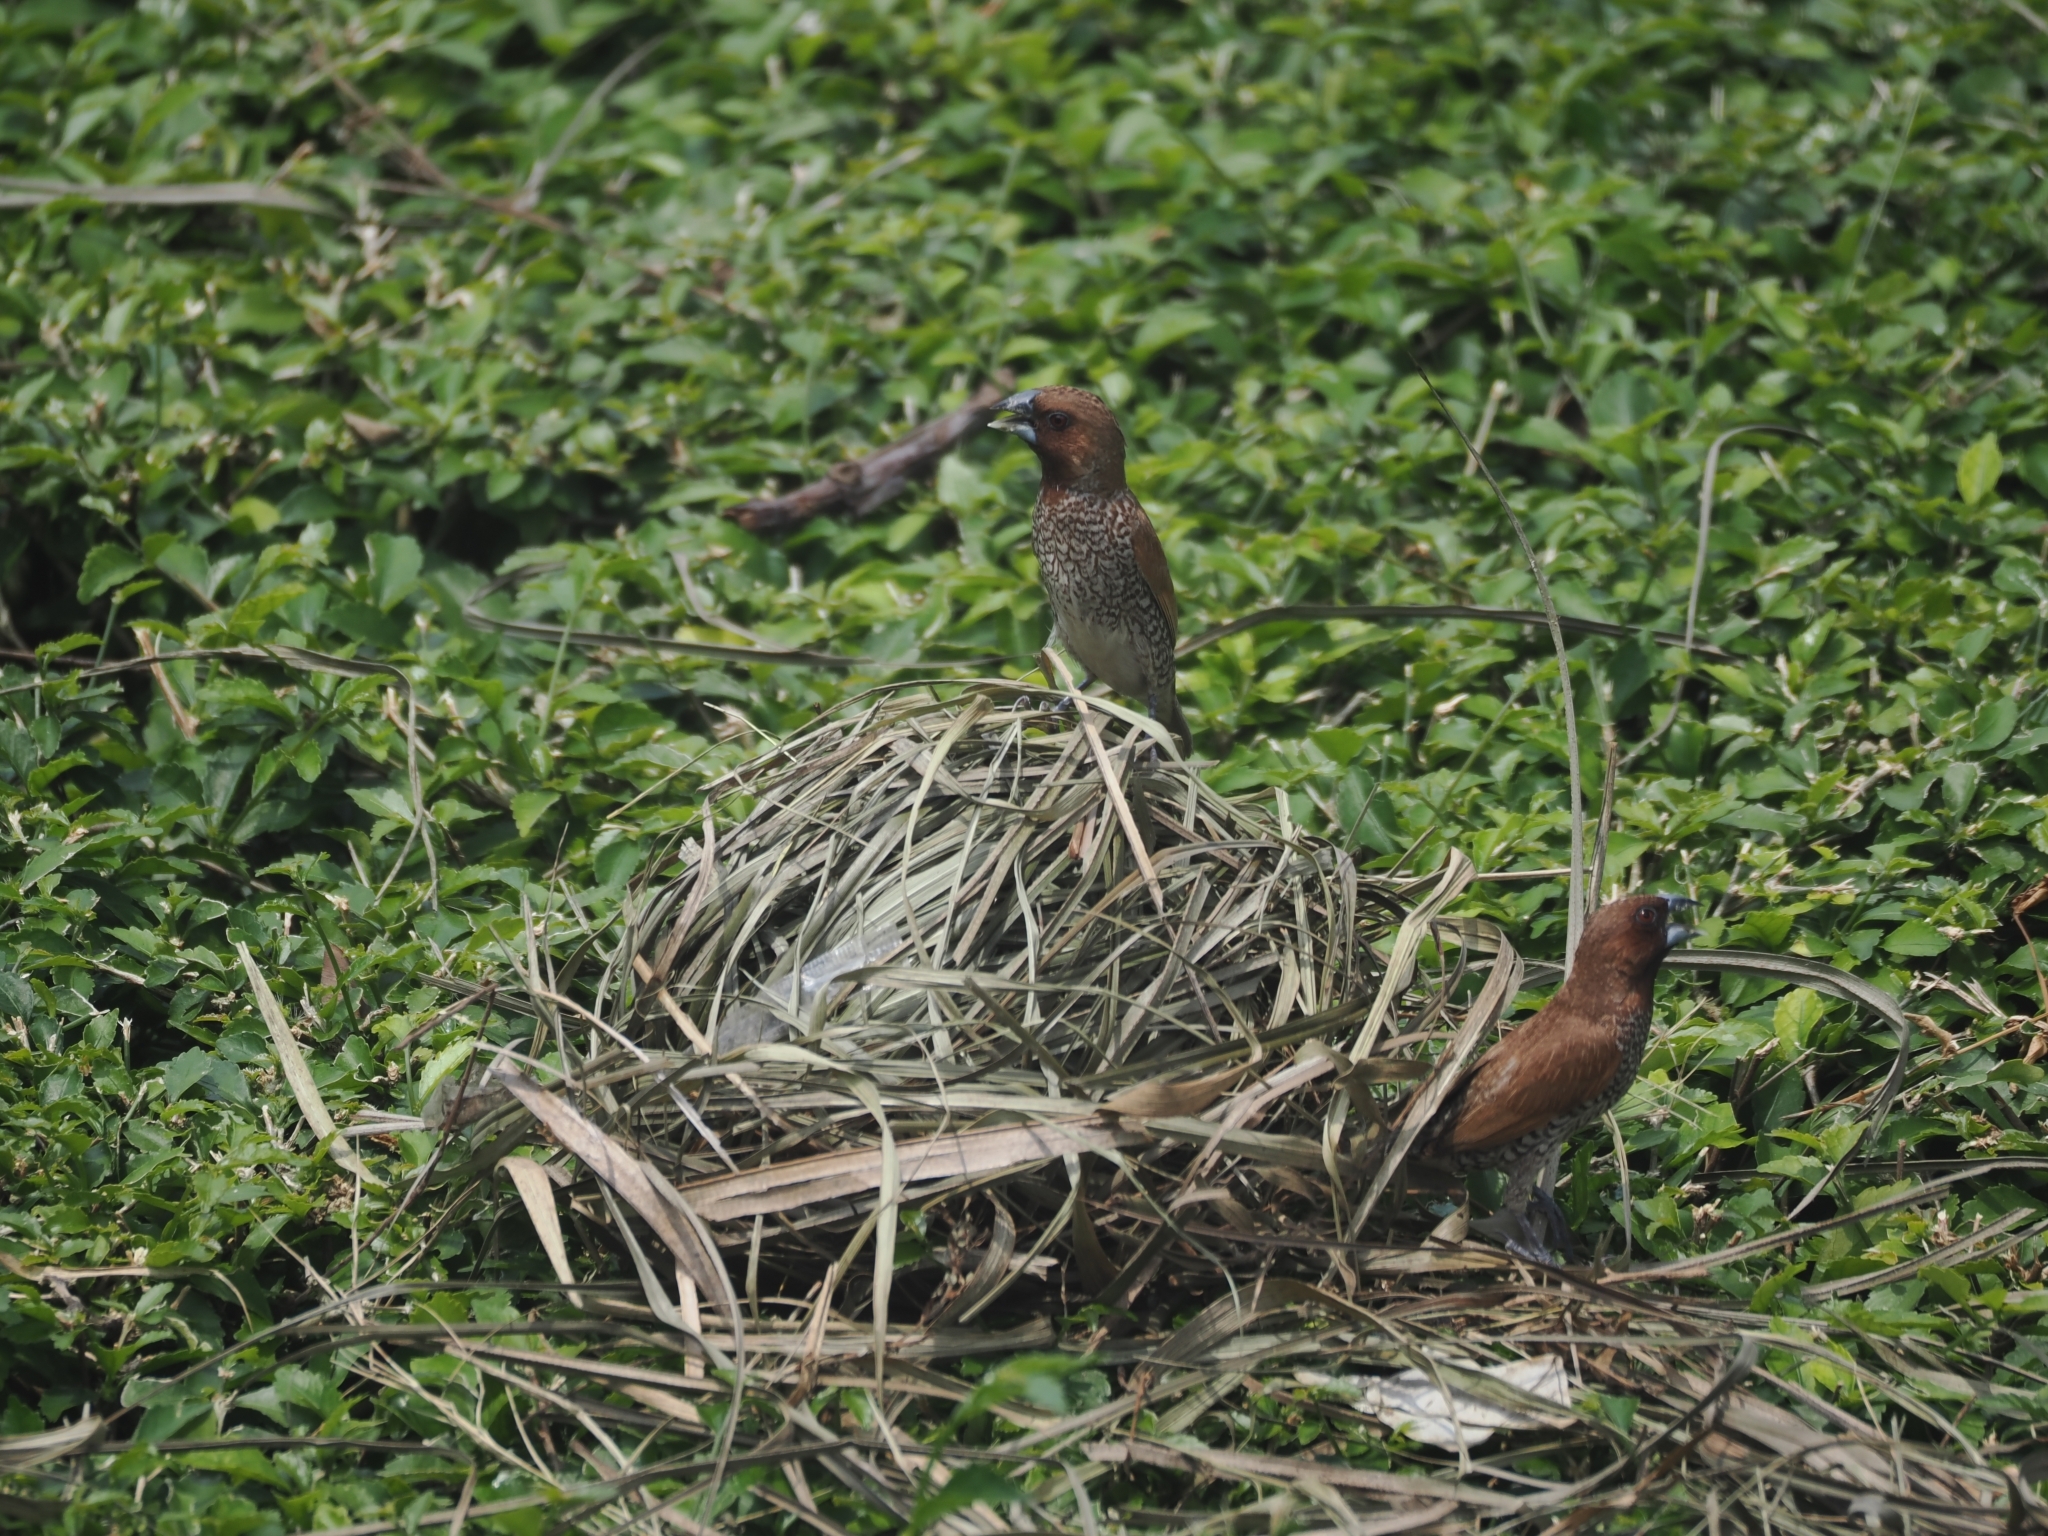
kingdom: Animalia
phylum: Chordata
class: Aves
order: Passeriformes
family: Estrildidae
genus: Lonchura
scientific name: Lonchura punctulata
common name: Scaly-breasted munia
